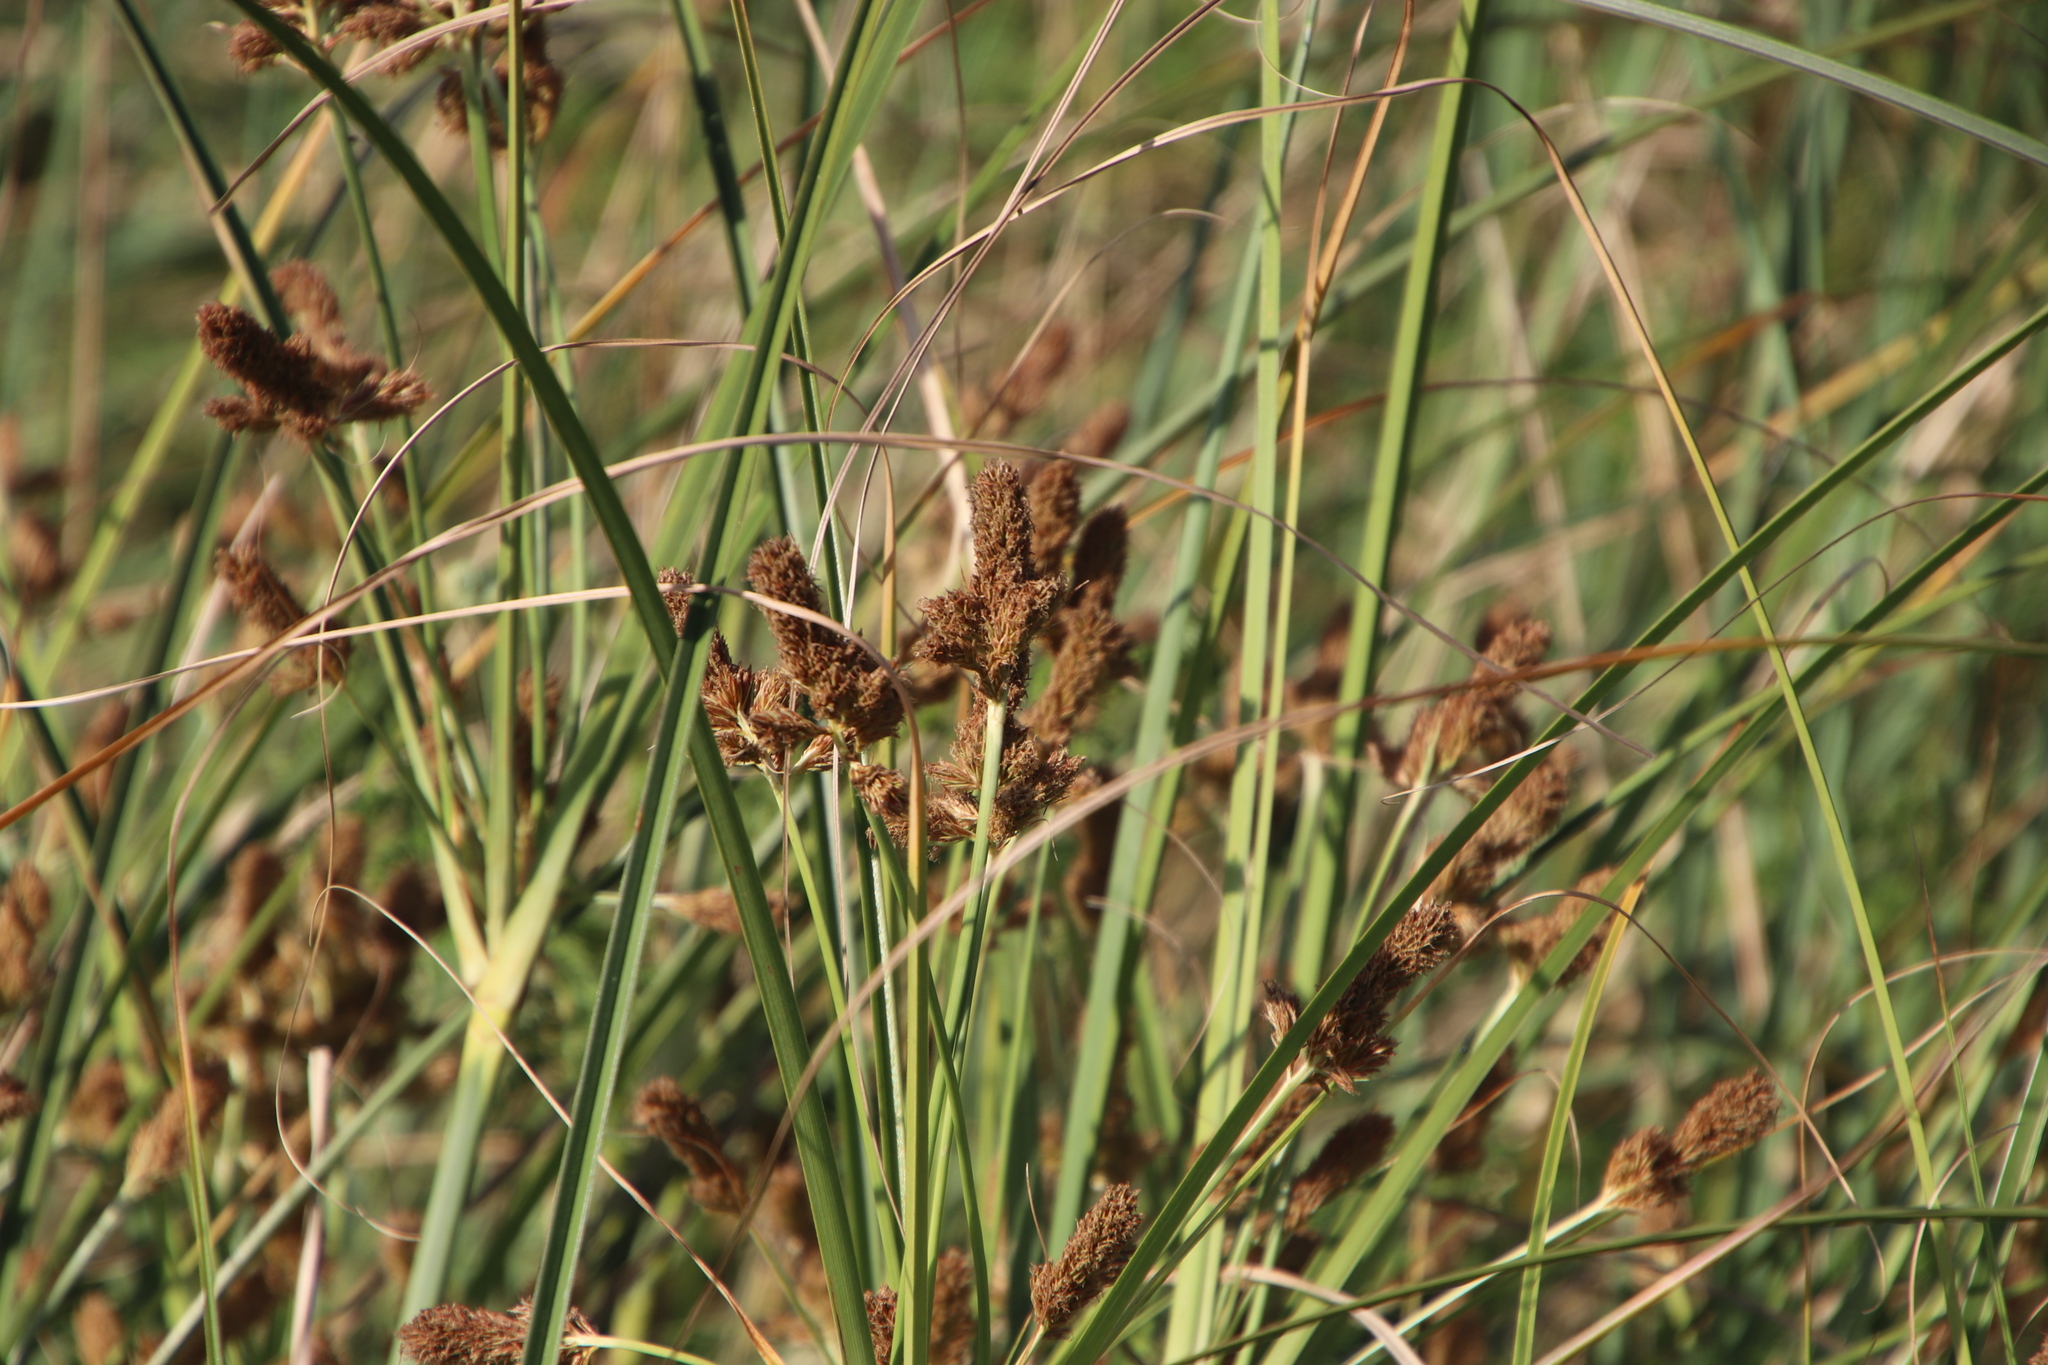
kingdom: Plantae
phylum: Tracheophyta
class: Liliopsida
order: Poales
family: Cyperaceae
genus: Cyperus
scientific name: Cyperus thunbergii
